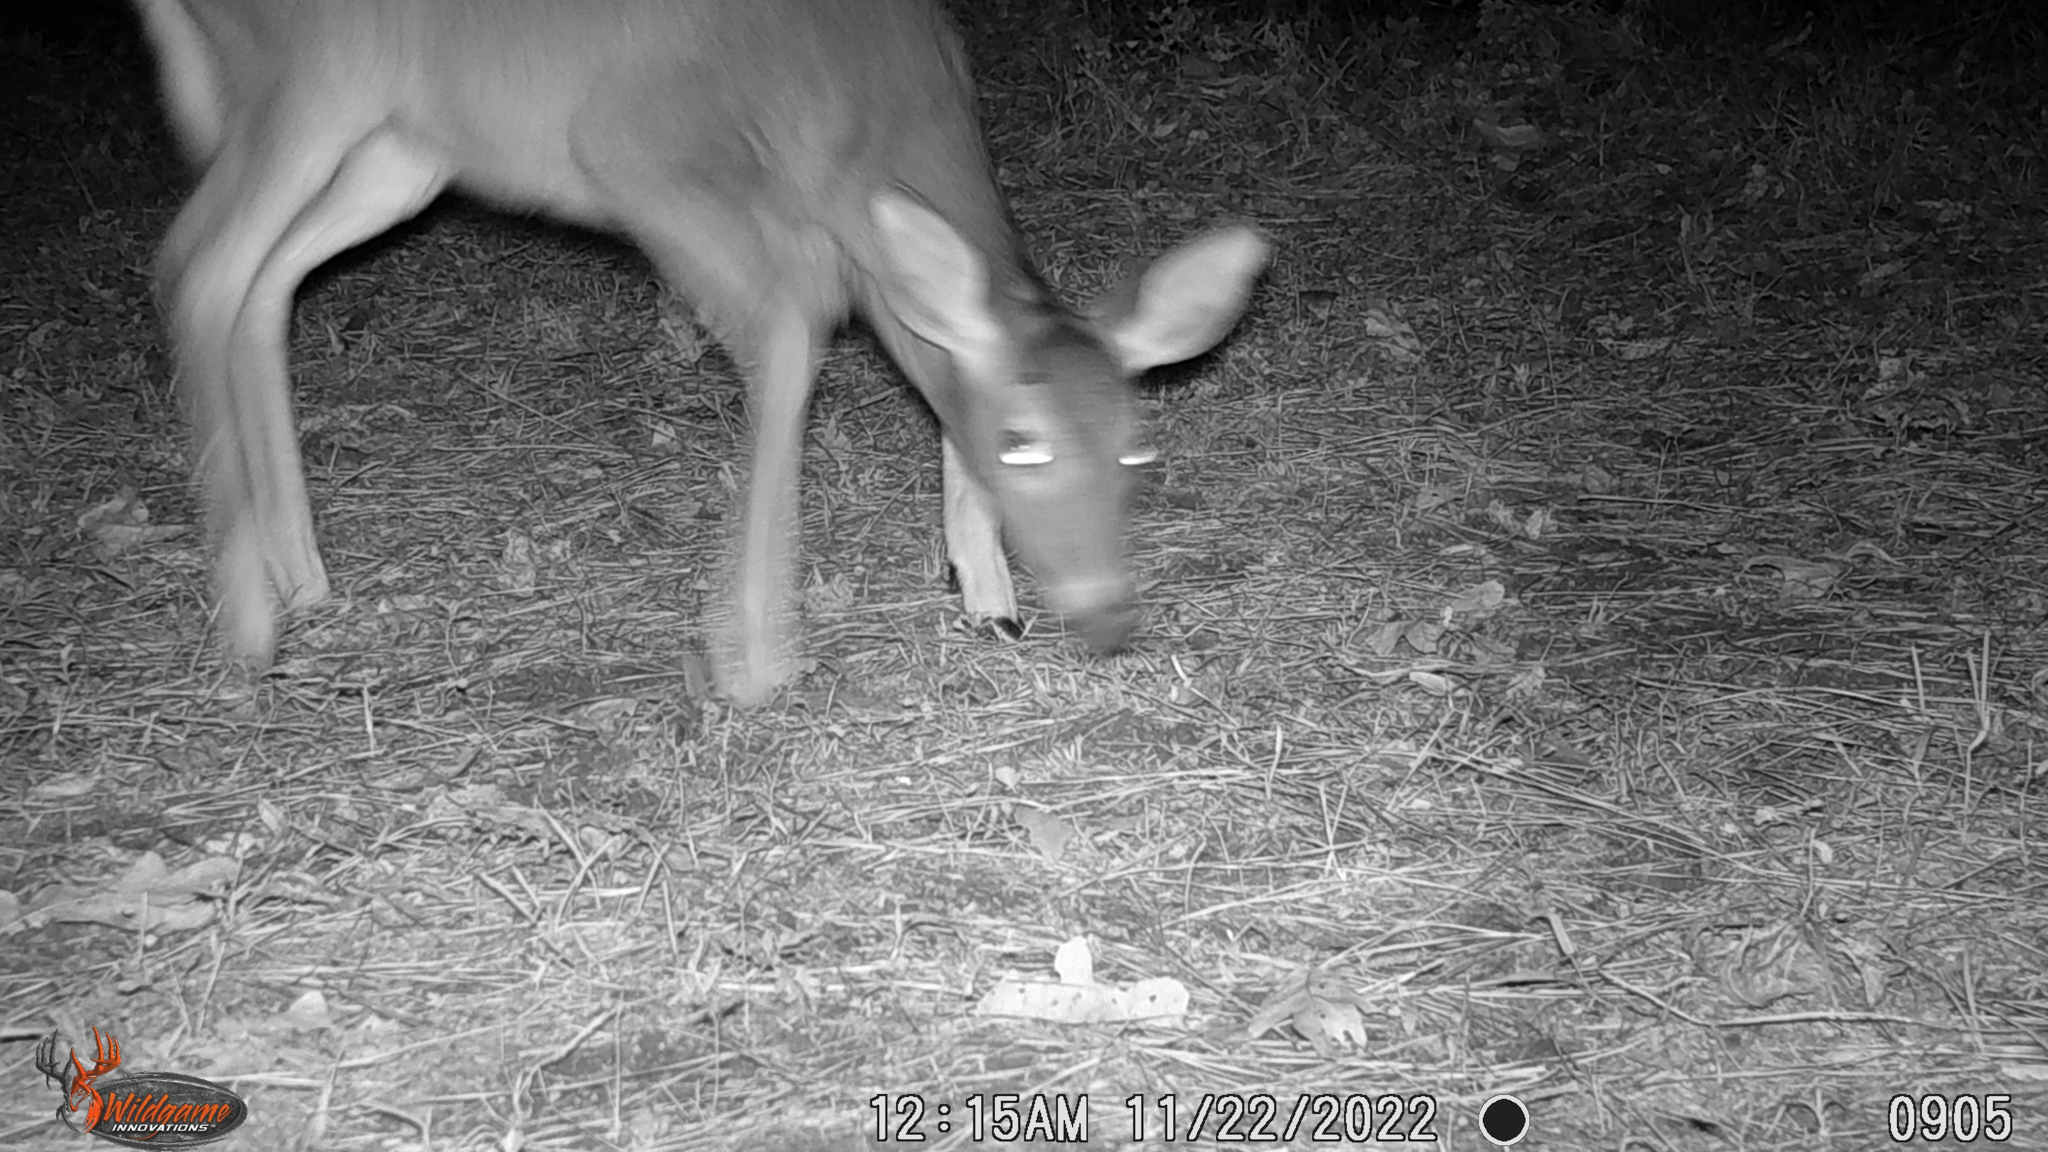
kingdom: Animalia
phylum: Chordata
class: Mammalia
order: Artiodactyla
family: Cervidae
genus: Odocoileus
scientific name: Odocoileus virginianus
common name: White-tailed deer
